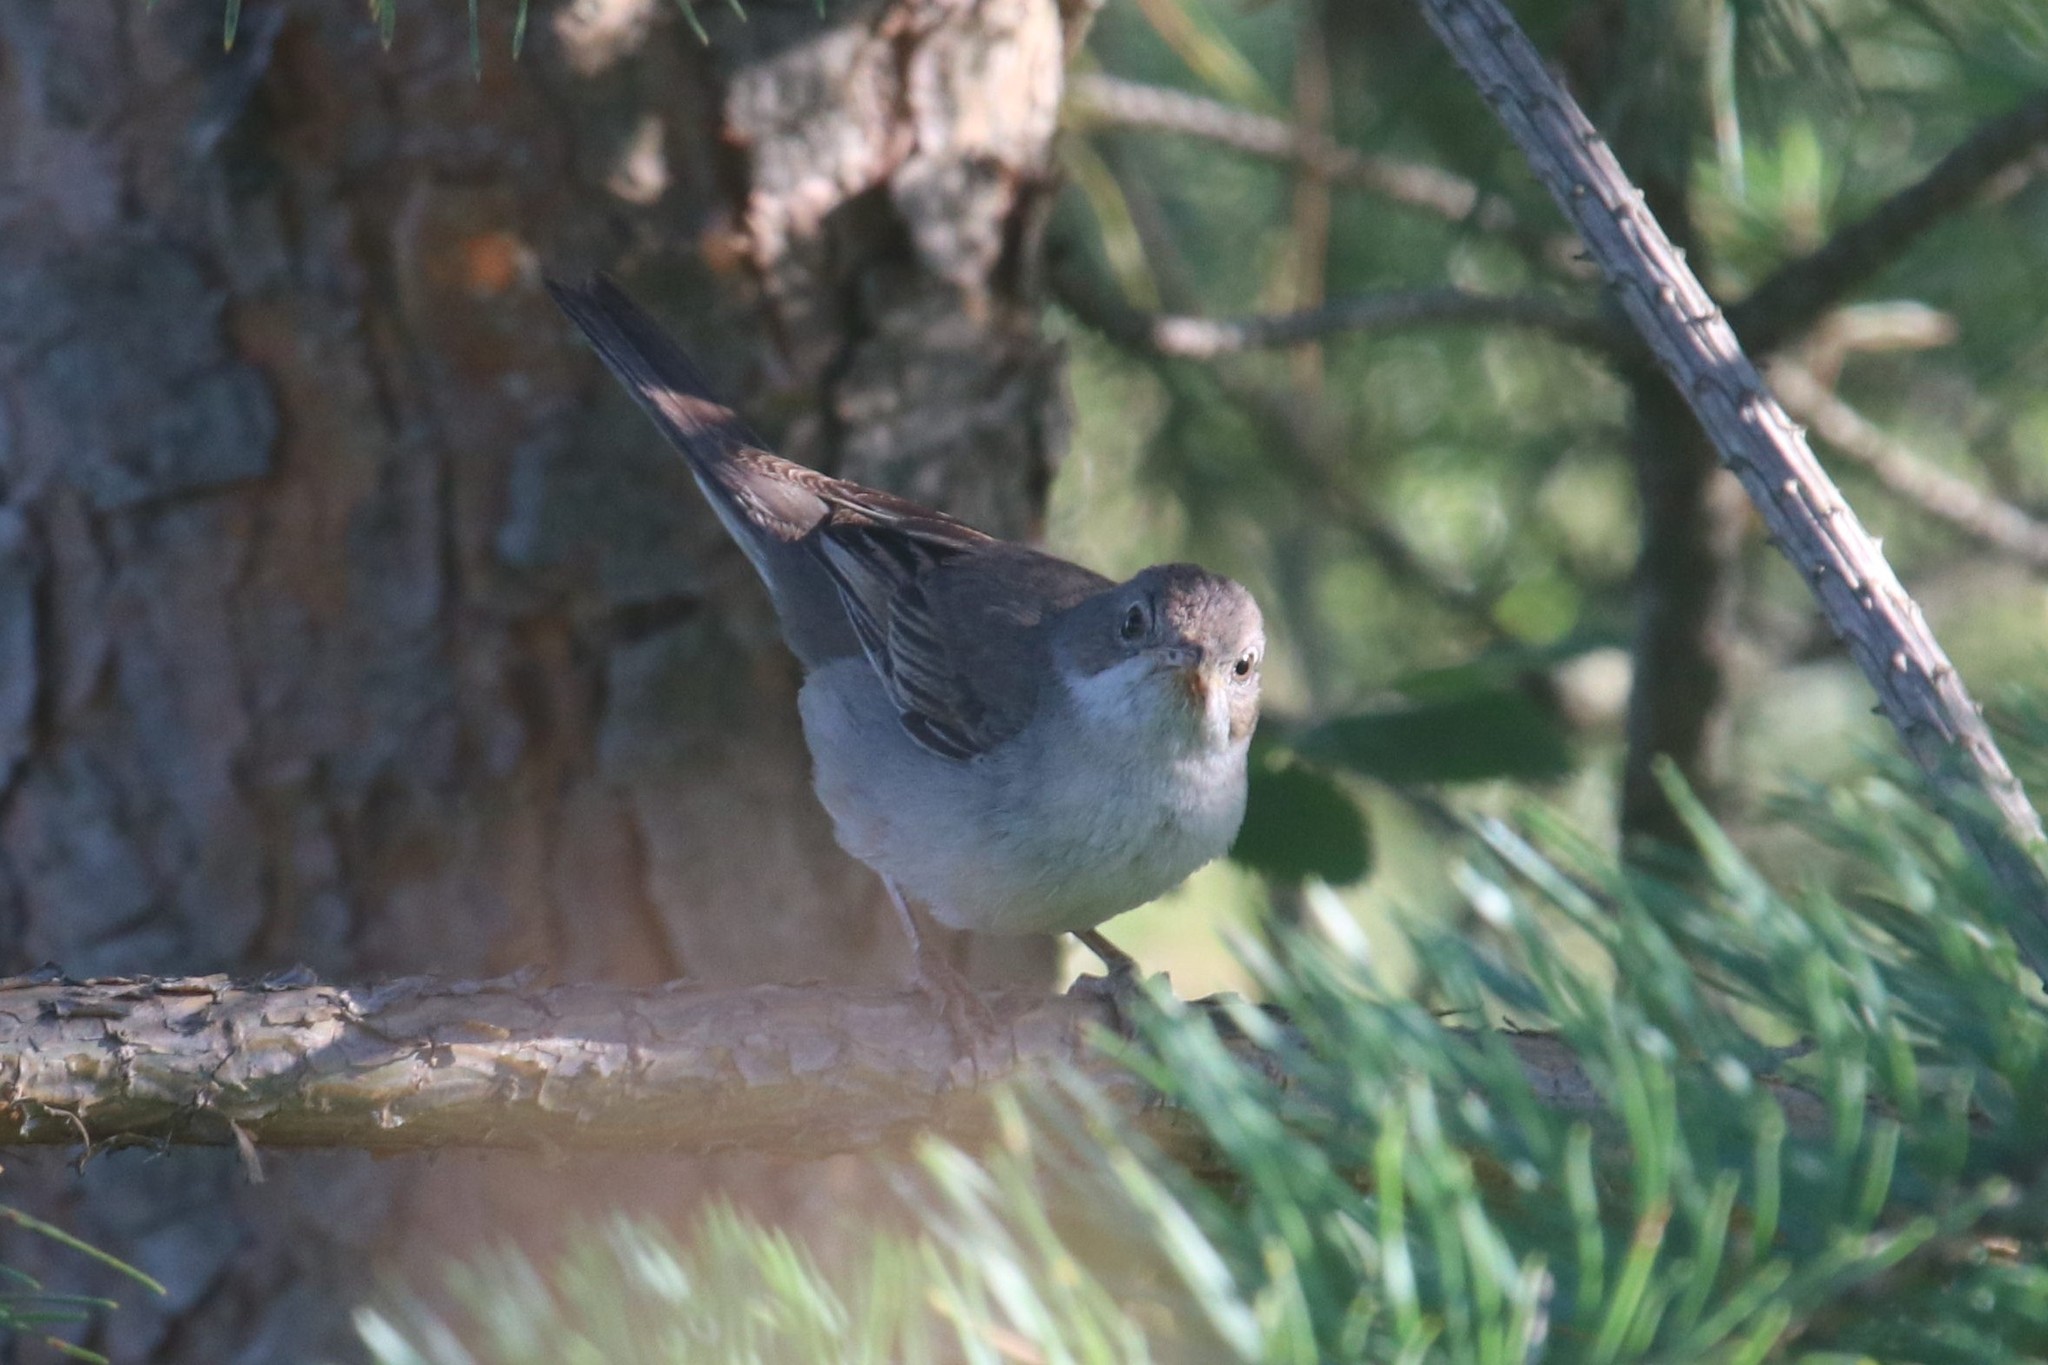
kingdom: Animalia
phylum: Chordata
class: Aves
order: Passeriformes
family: Sylviidae
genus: Sylvia
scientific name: Sylvia communis
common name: Common whitethroat
